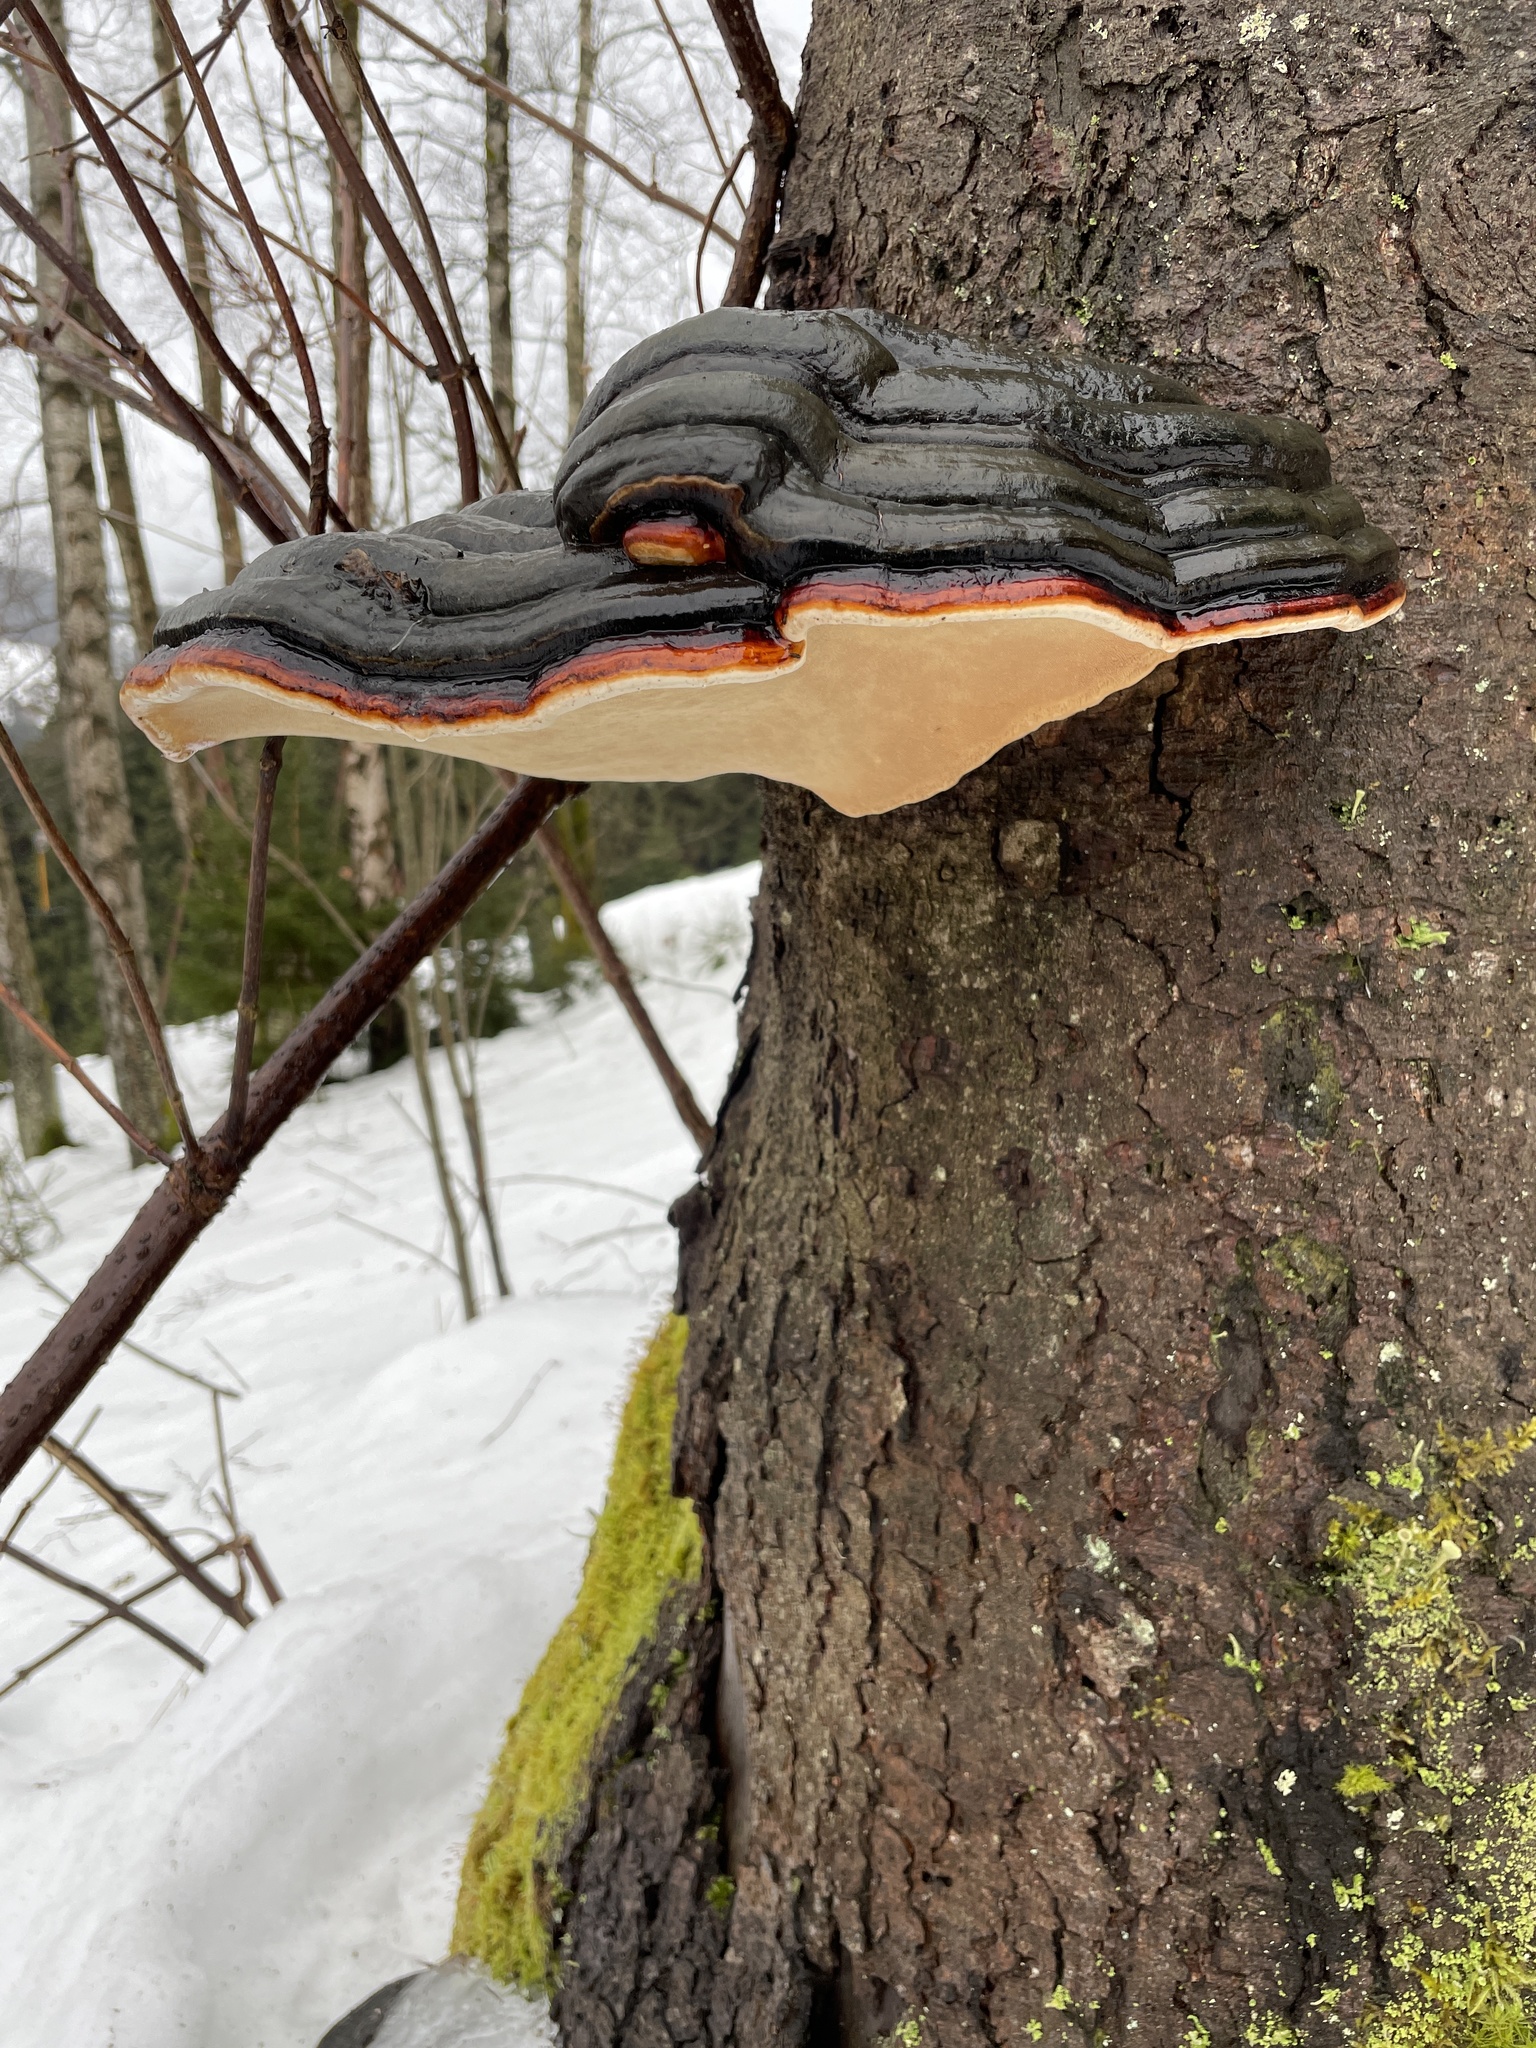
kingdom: Fungi
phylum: Basidiomycota
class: Agaricomycetes
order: Polyporales
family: Fomitopsidaceae
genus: Fomitopsis
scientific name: Fomitopsis pinicola
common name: Red-belted bracket
